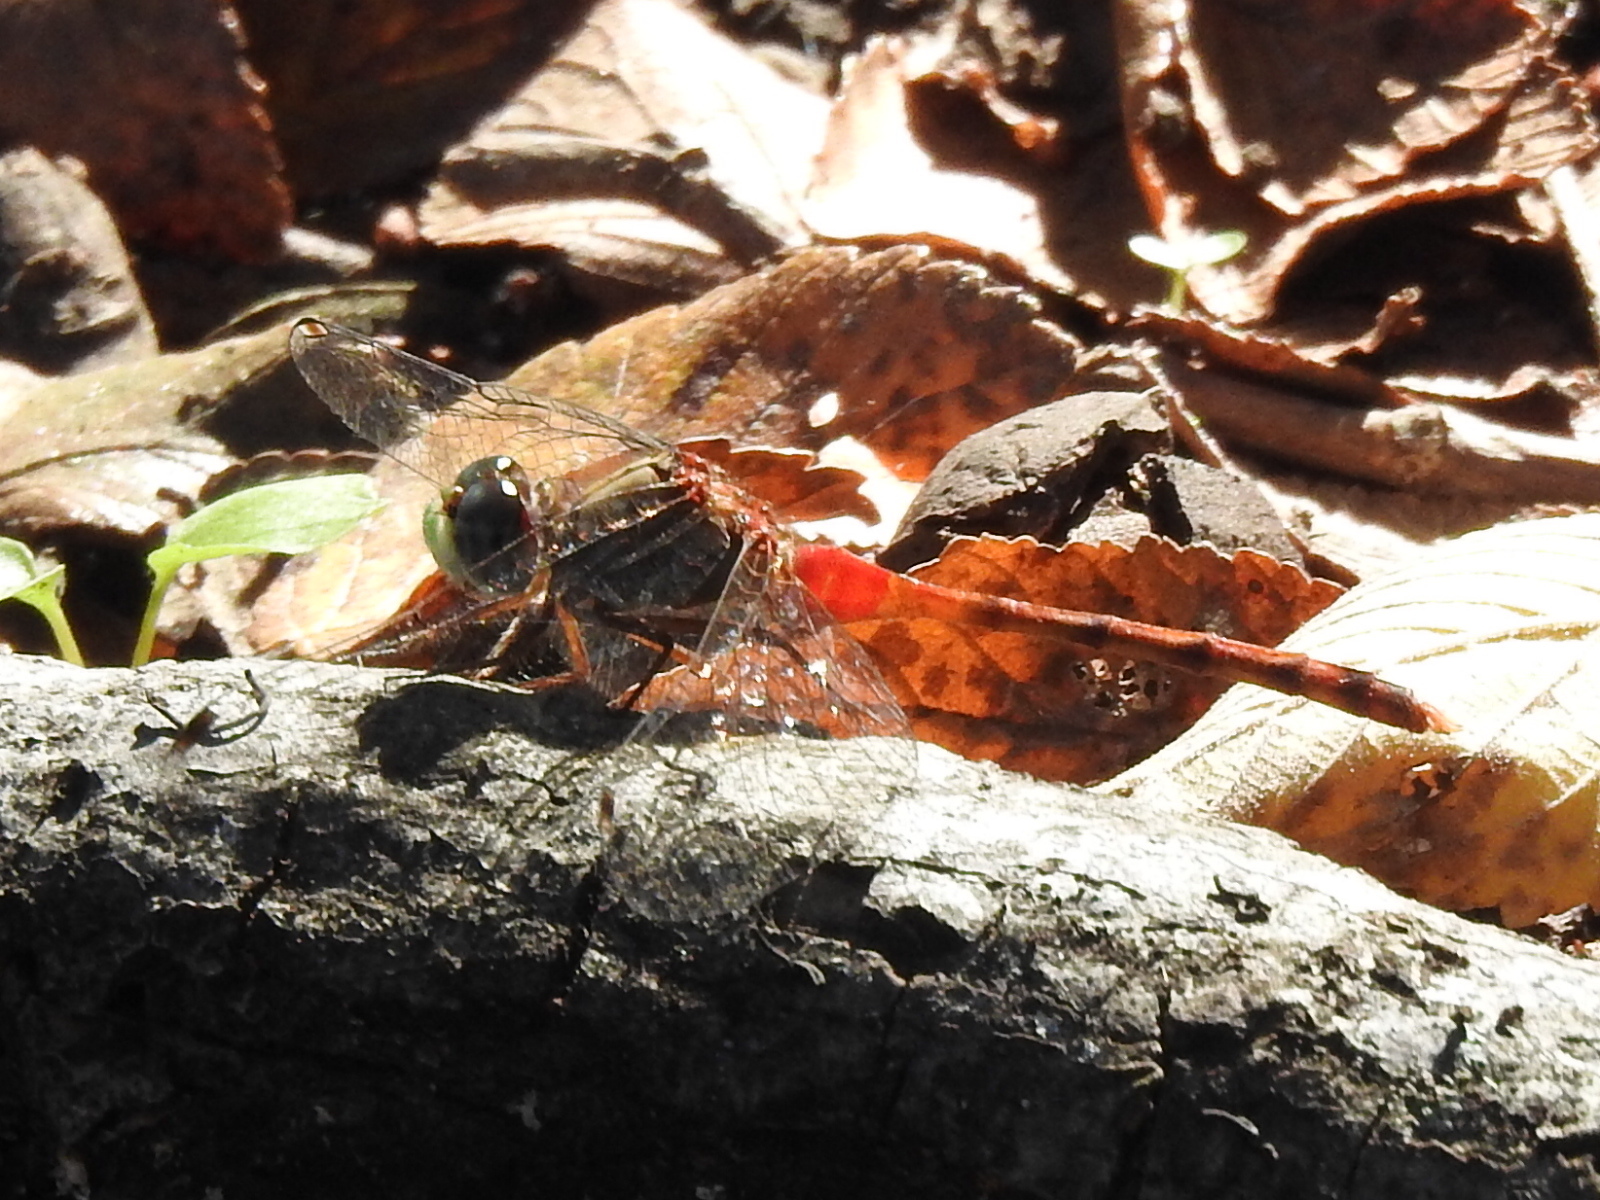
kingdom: Animalia
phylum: Arthropoda
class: Insecta
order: Odonata
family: Libellulidae
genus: Sympetrum
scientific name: Sympetrum ambiguum
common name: Blue-faced meadowhawk
